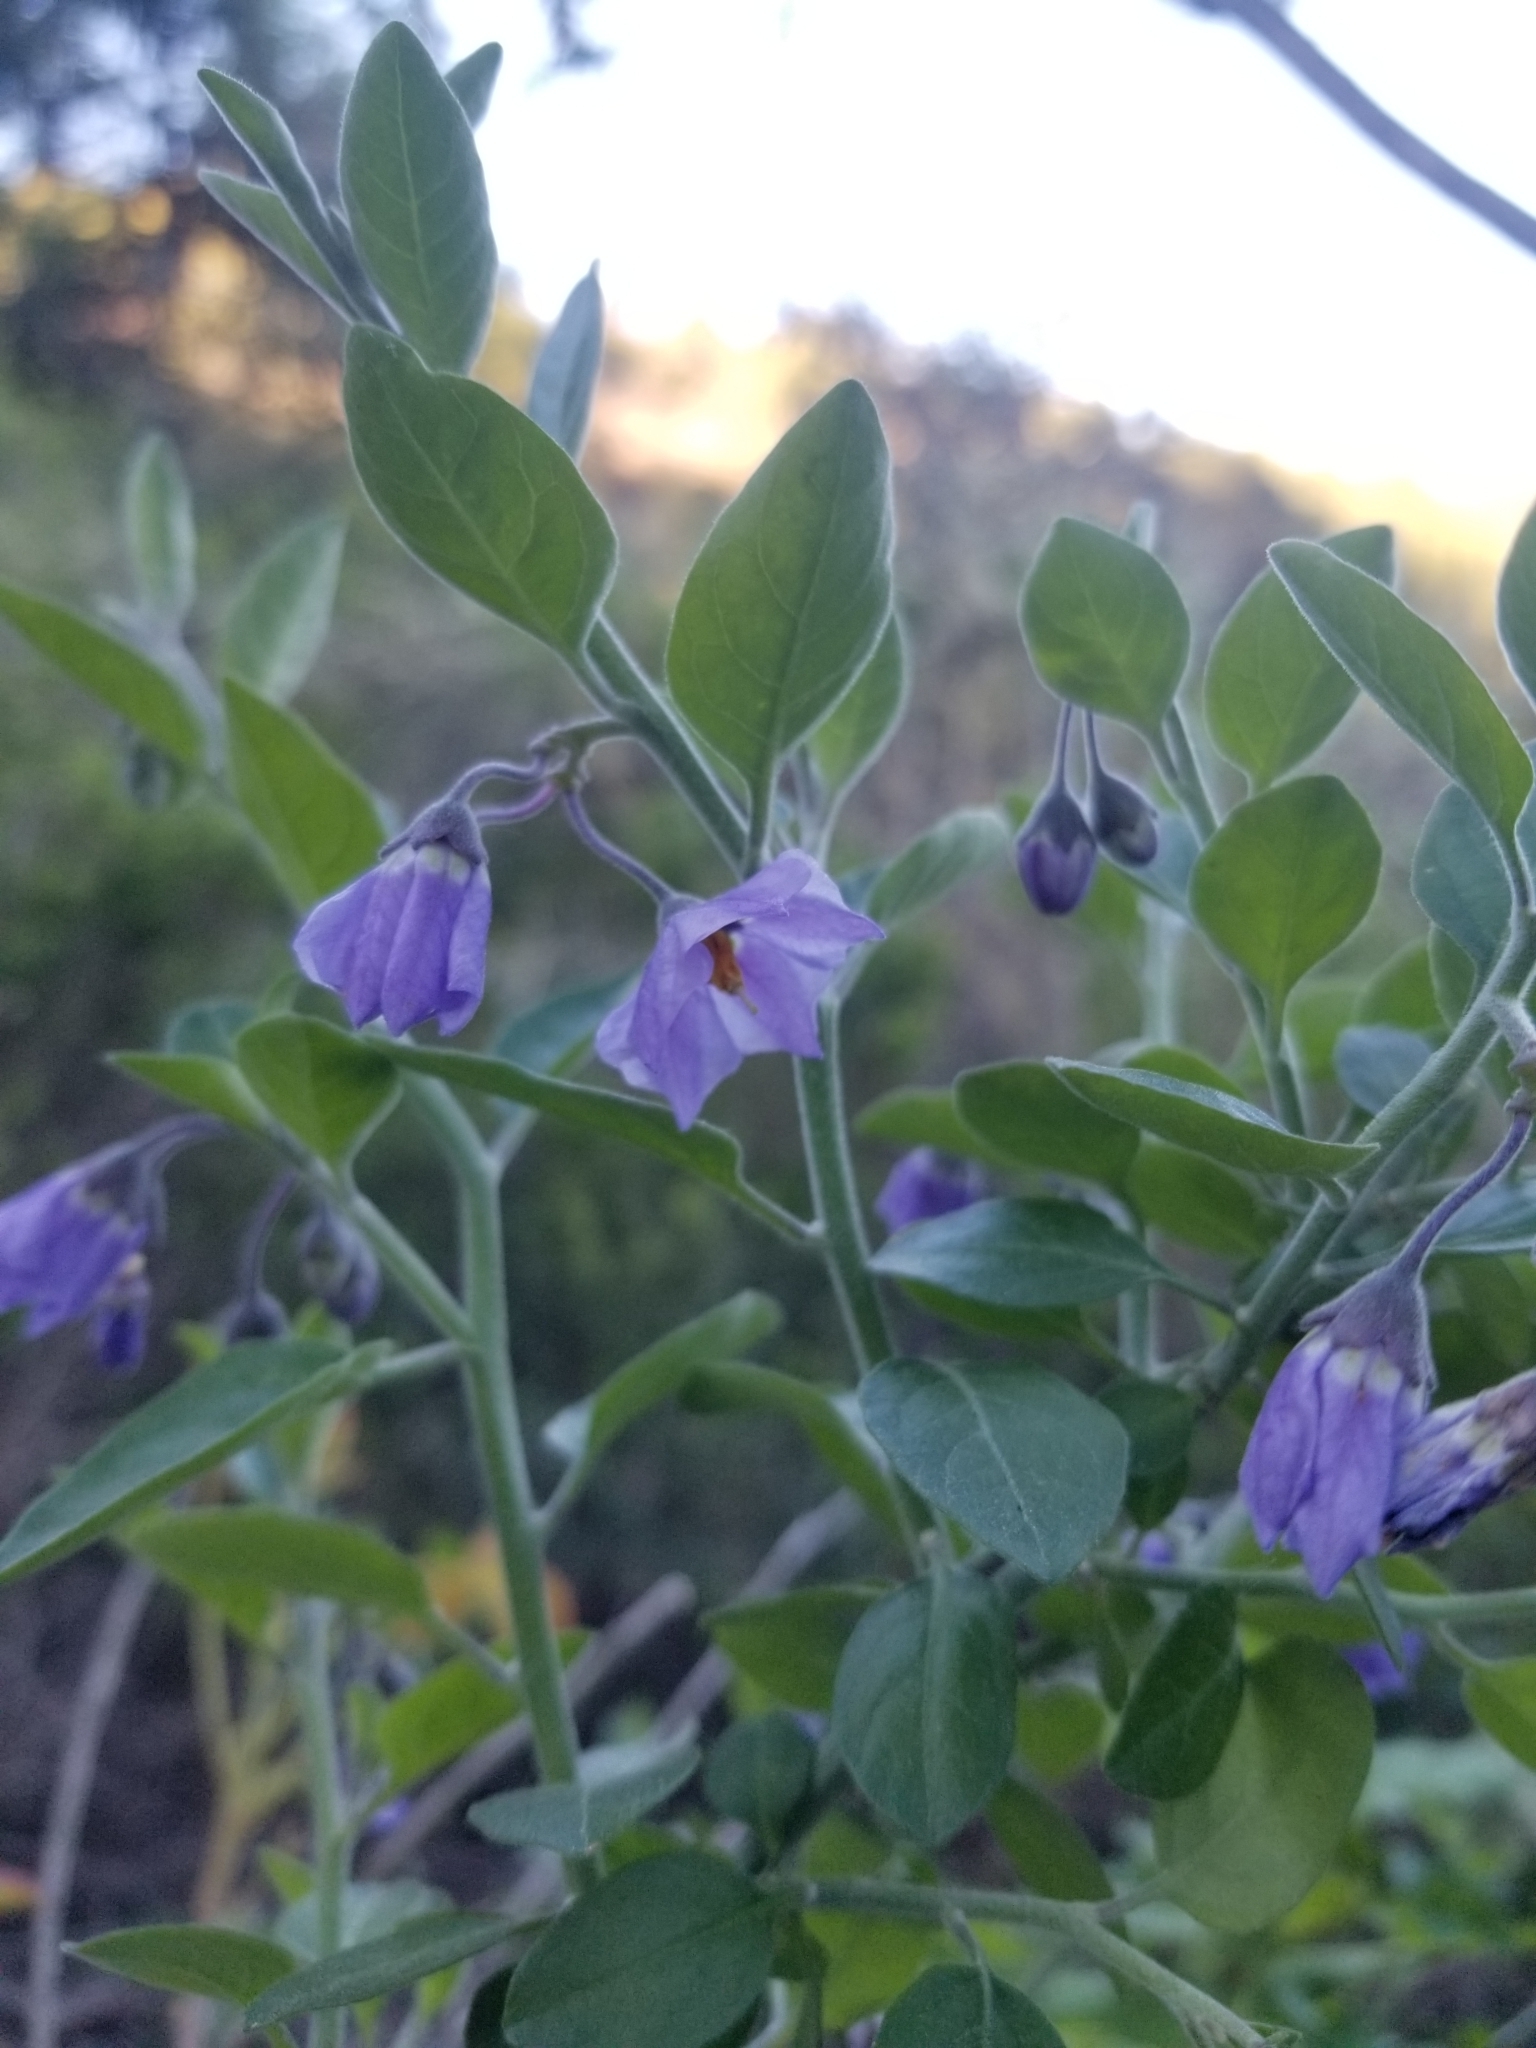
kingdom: Plantae
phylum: Tracheophyta
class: Magnoliopsida
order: Solanales
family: Solanaceae
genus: Solanum
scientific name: Solanum umbelliferum
